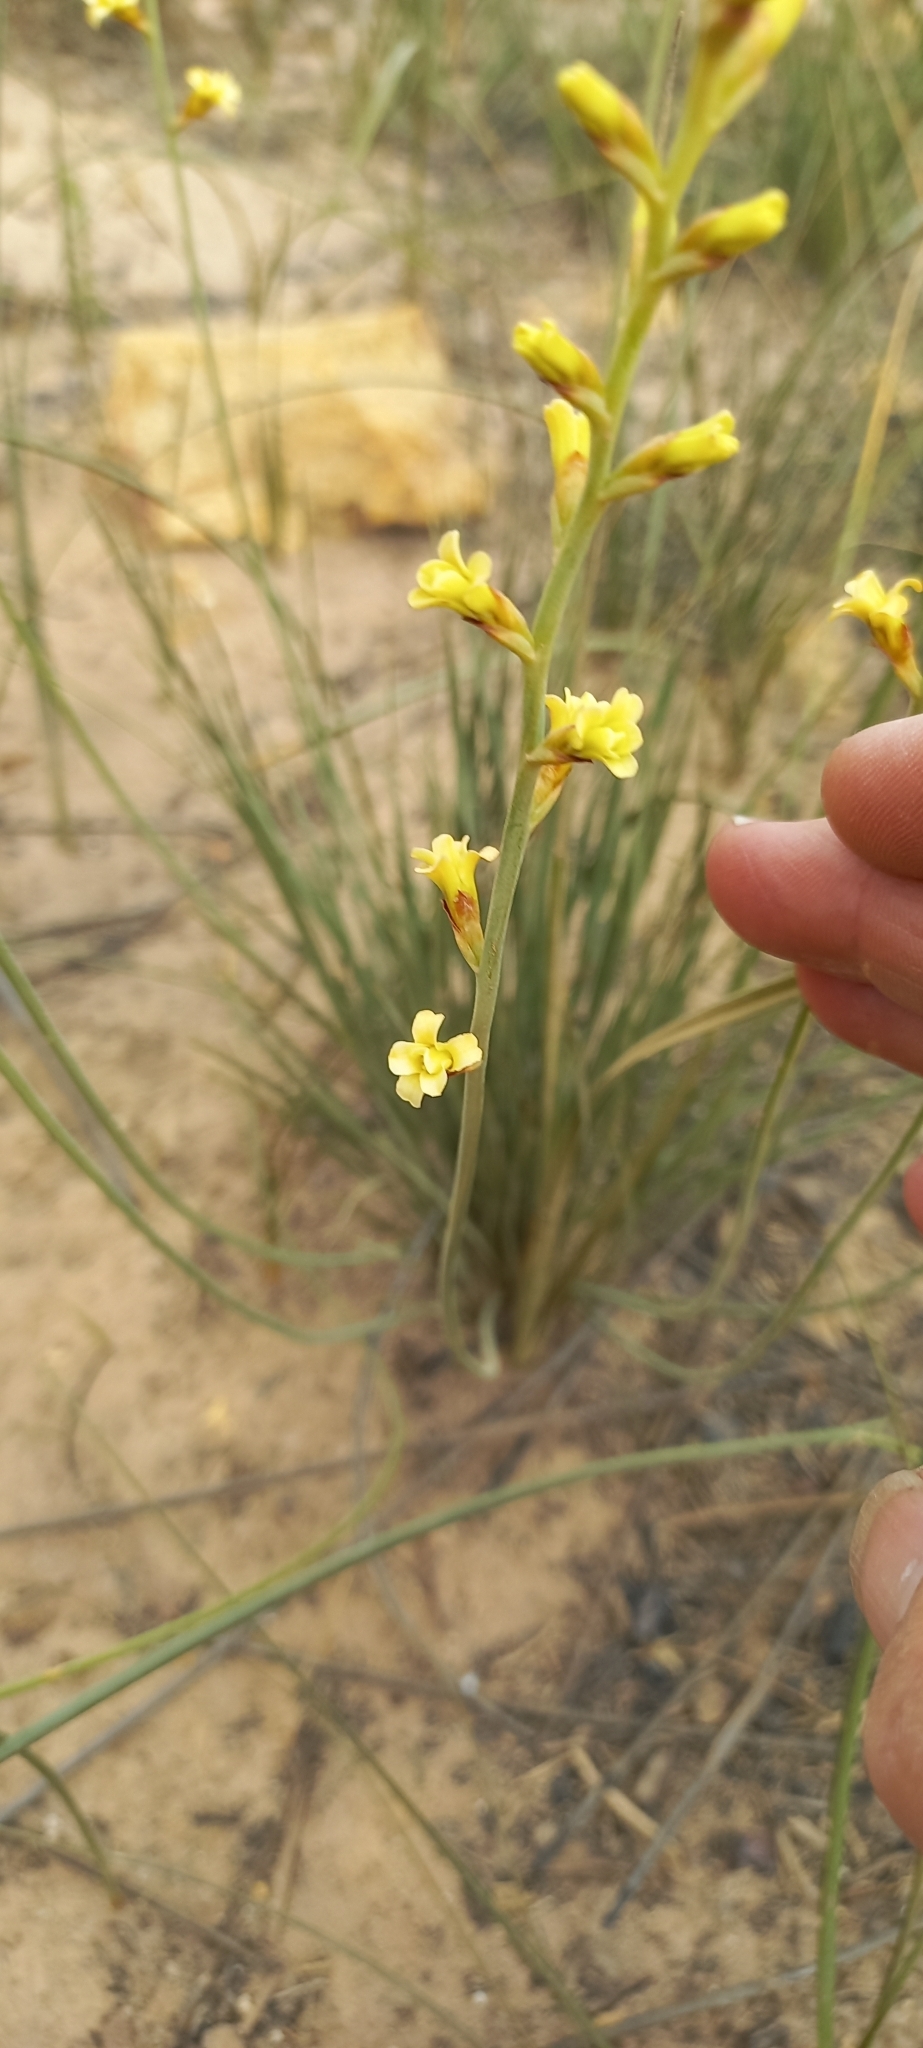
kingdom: Plantae
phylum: Tracheophyta
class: Liliopsida
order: Asparagales
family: Iridaceae
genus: Tritoniopsis
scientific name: Tritoniopsis unguicularis
